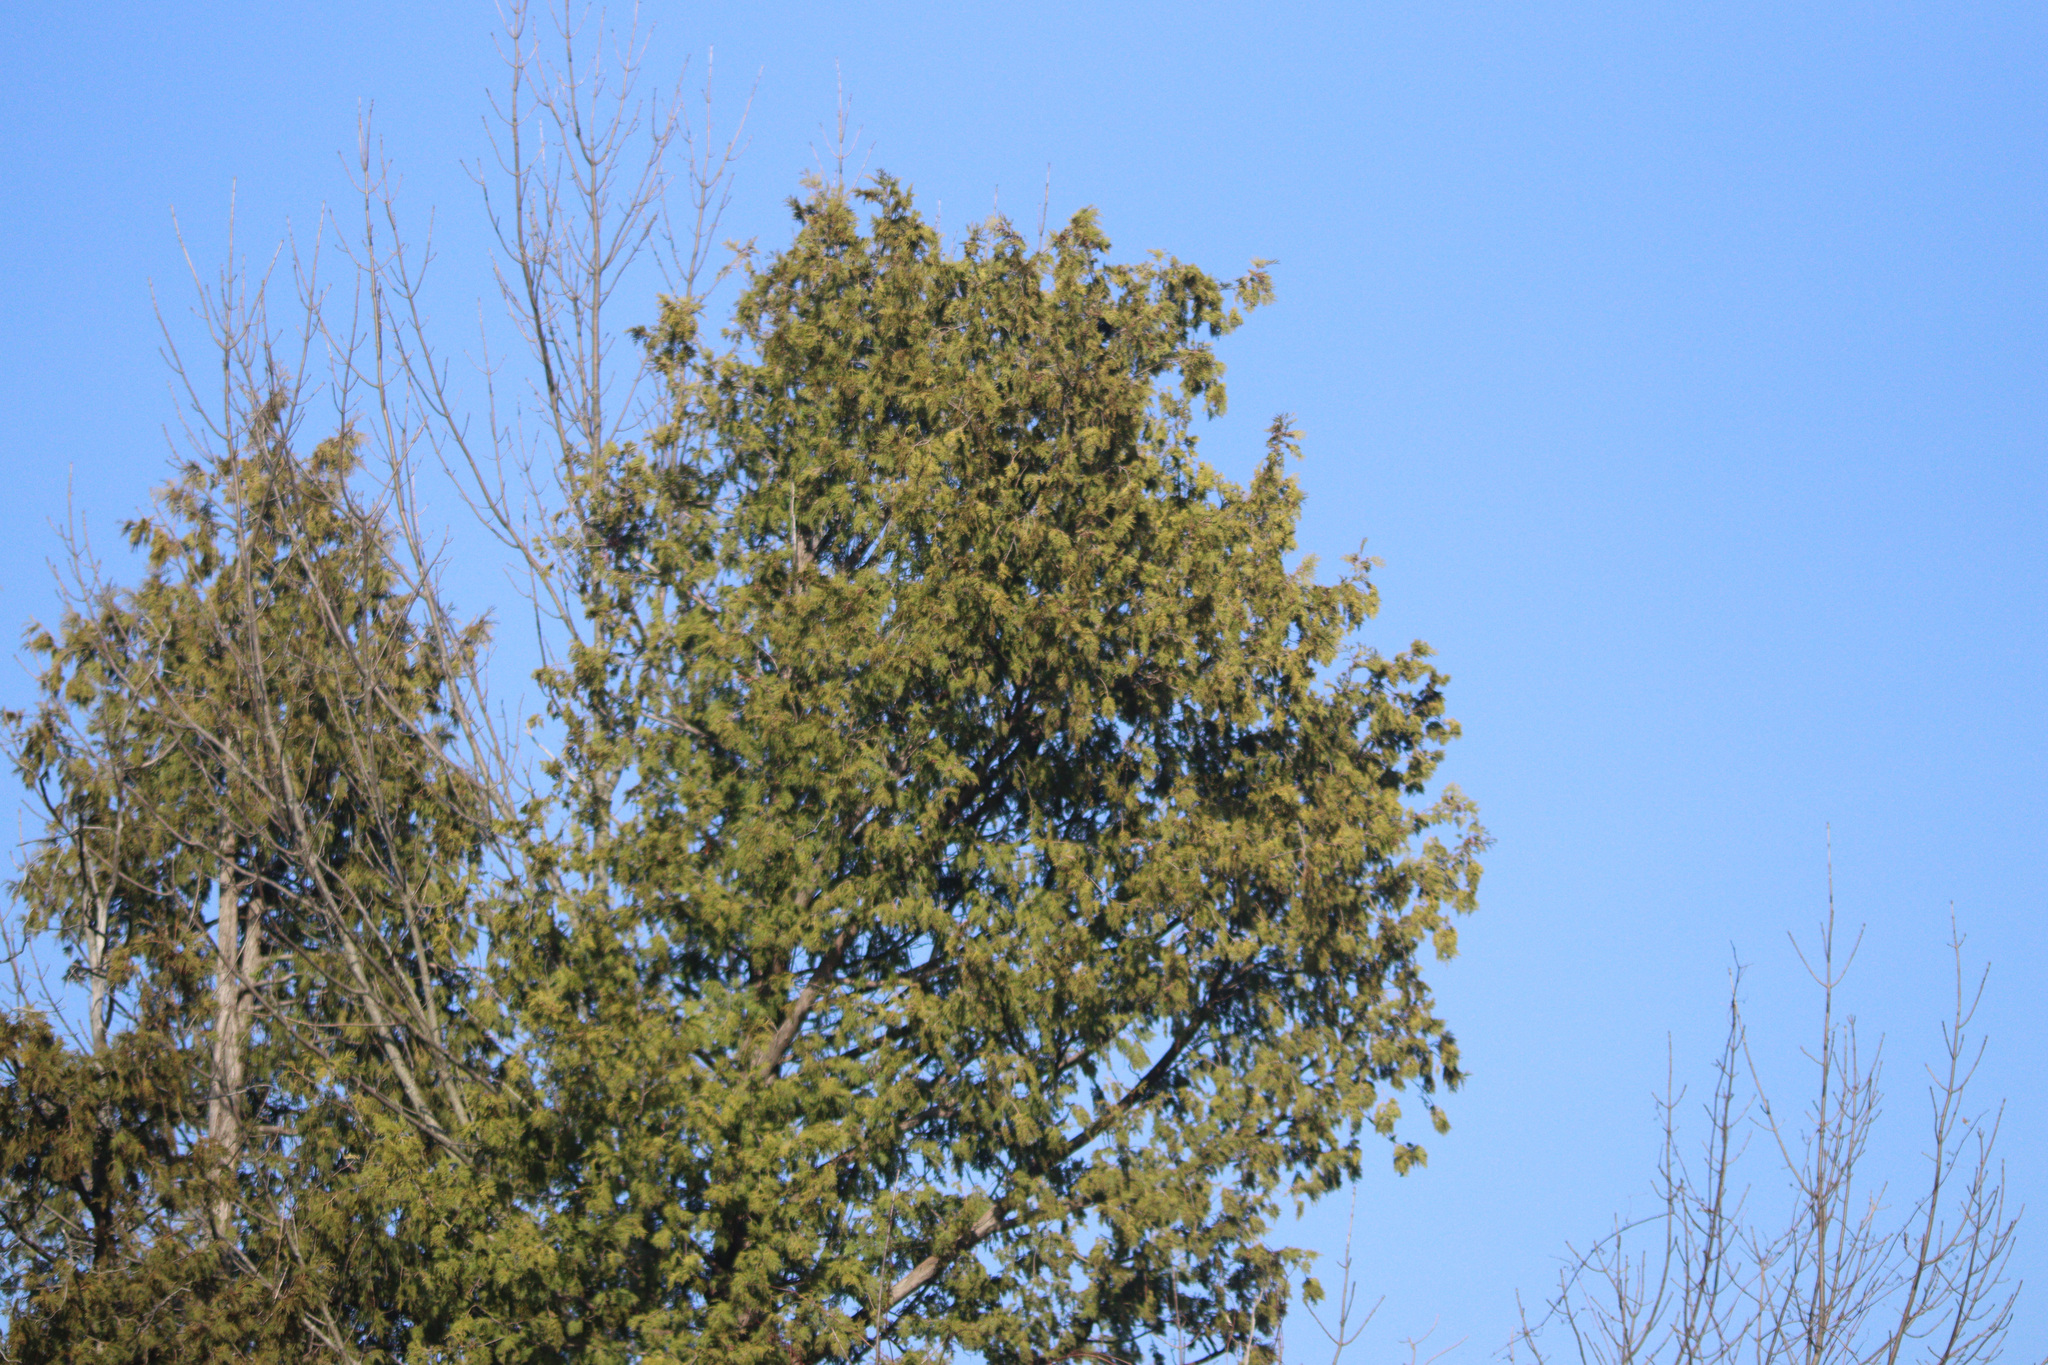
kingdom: Plantae
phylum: Tracheophyta
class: Pinopsida
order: Pinales
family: Cupressaceae
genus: Thuja
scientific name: Thuja occidentalis
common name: Northern white-cedar
